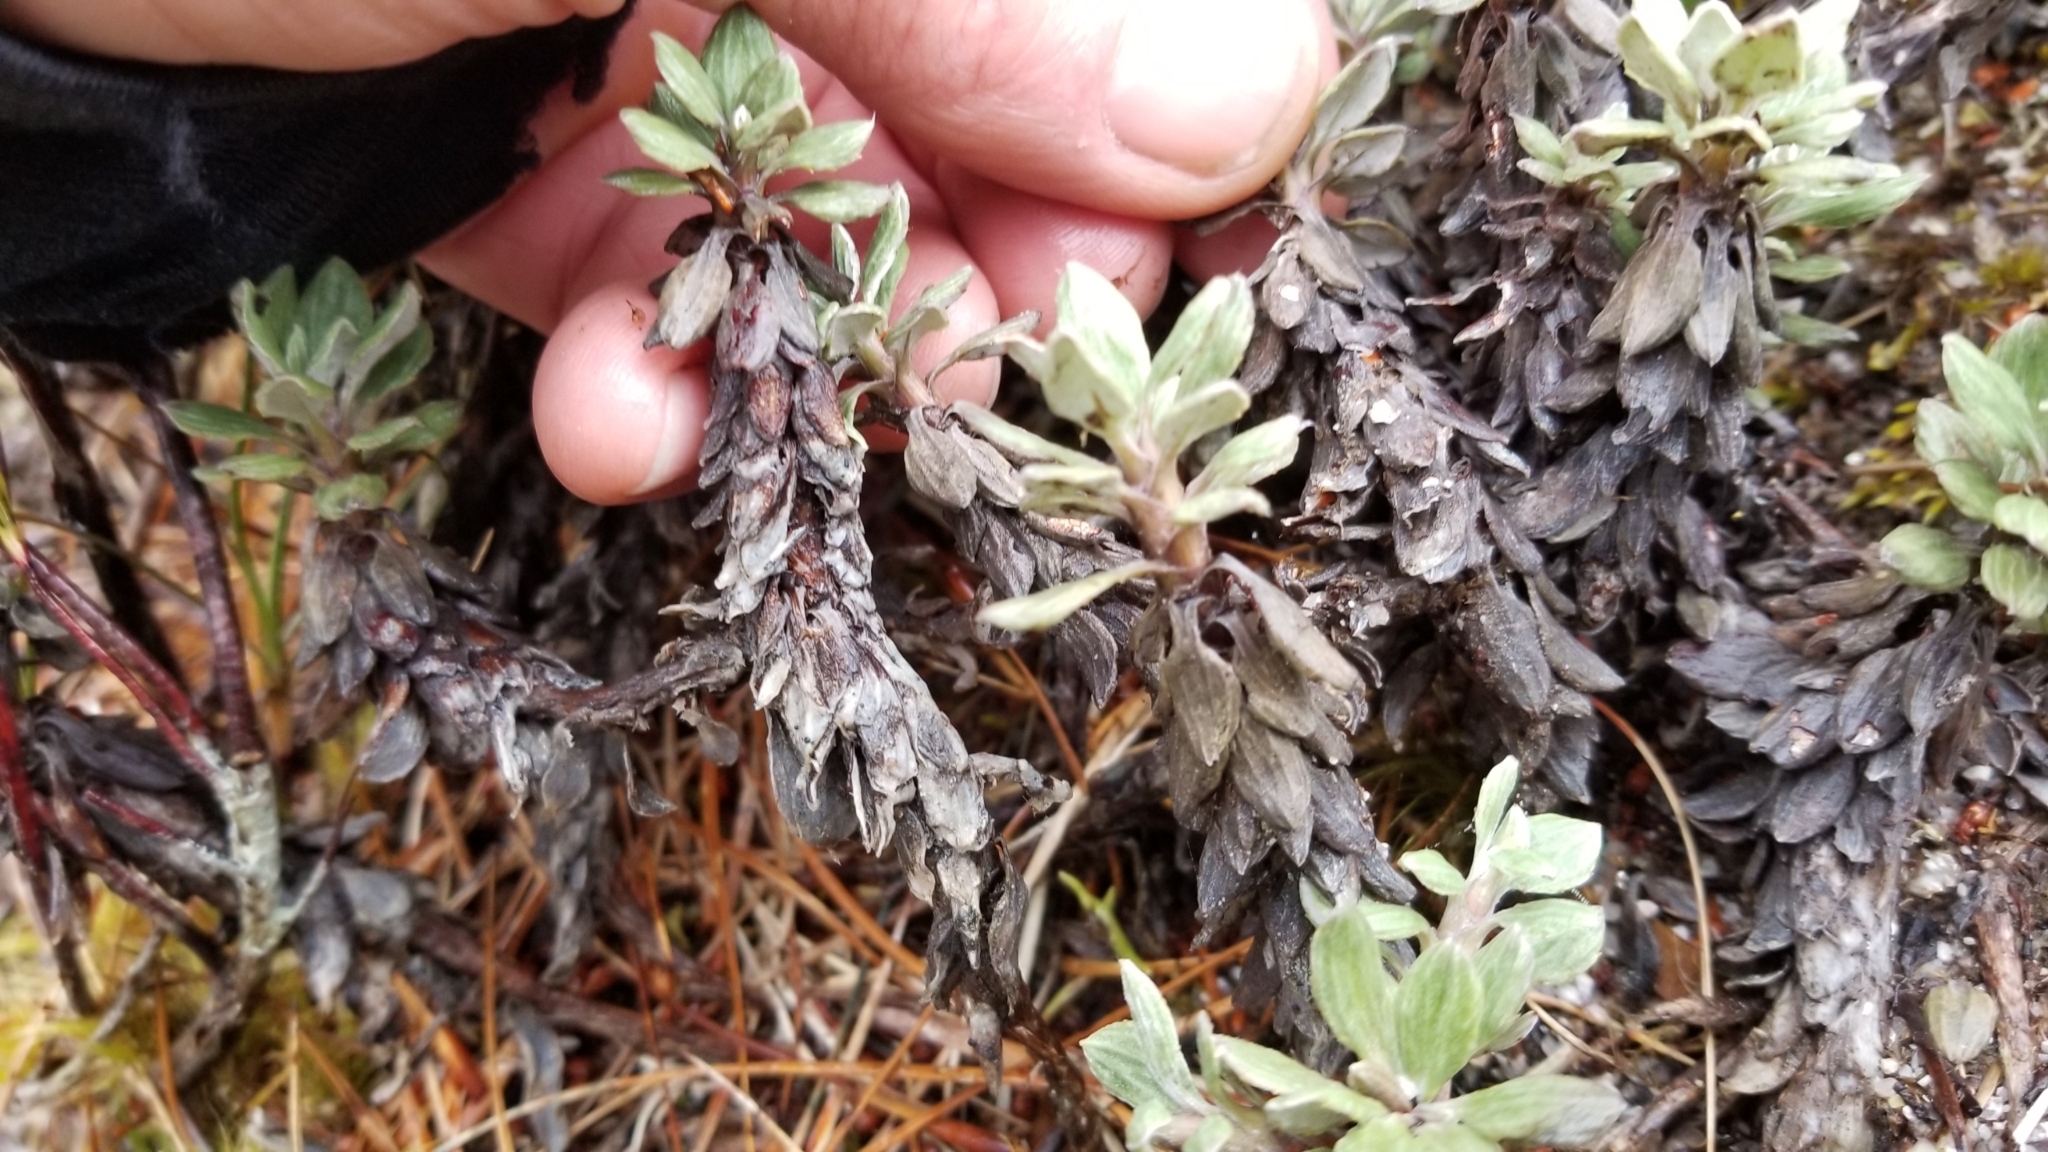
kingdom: Plantae
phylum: Tracheophyta
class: Magnoliopsida
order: Asterales
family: Asteraceae
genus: Celmisia
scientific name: Celmisia discolor
